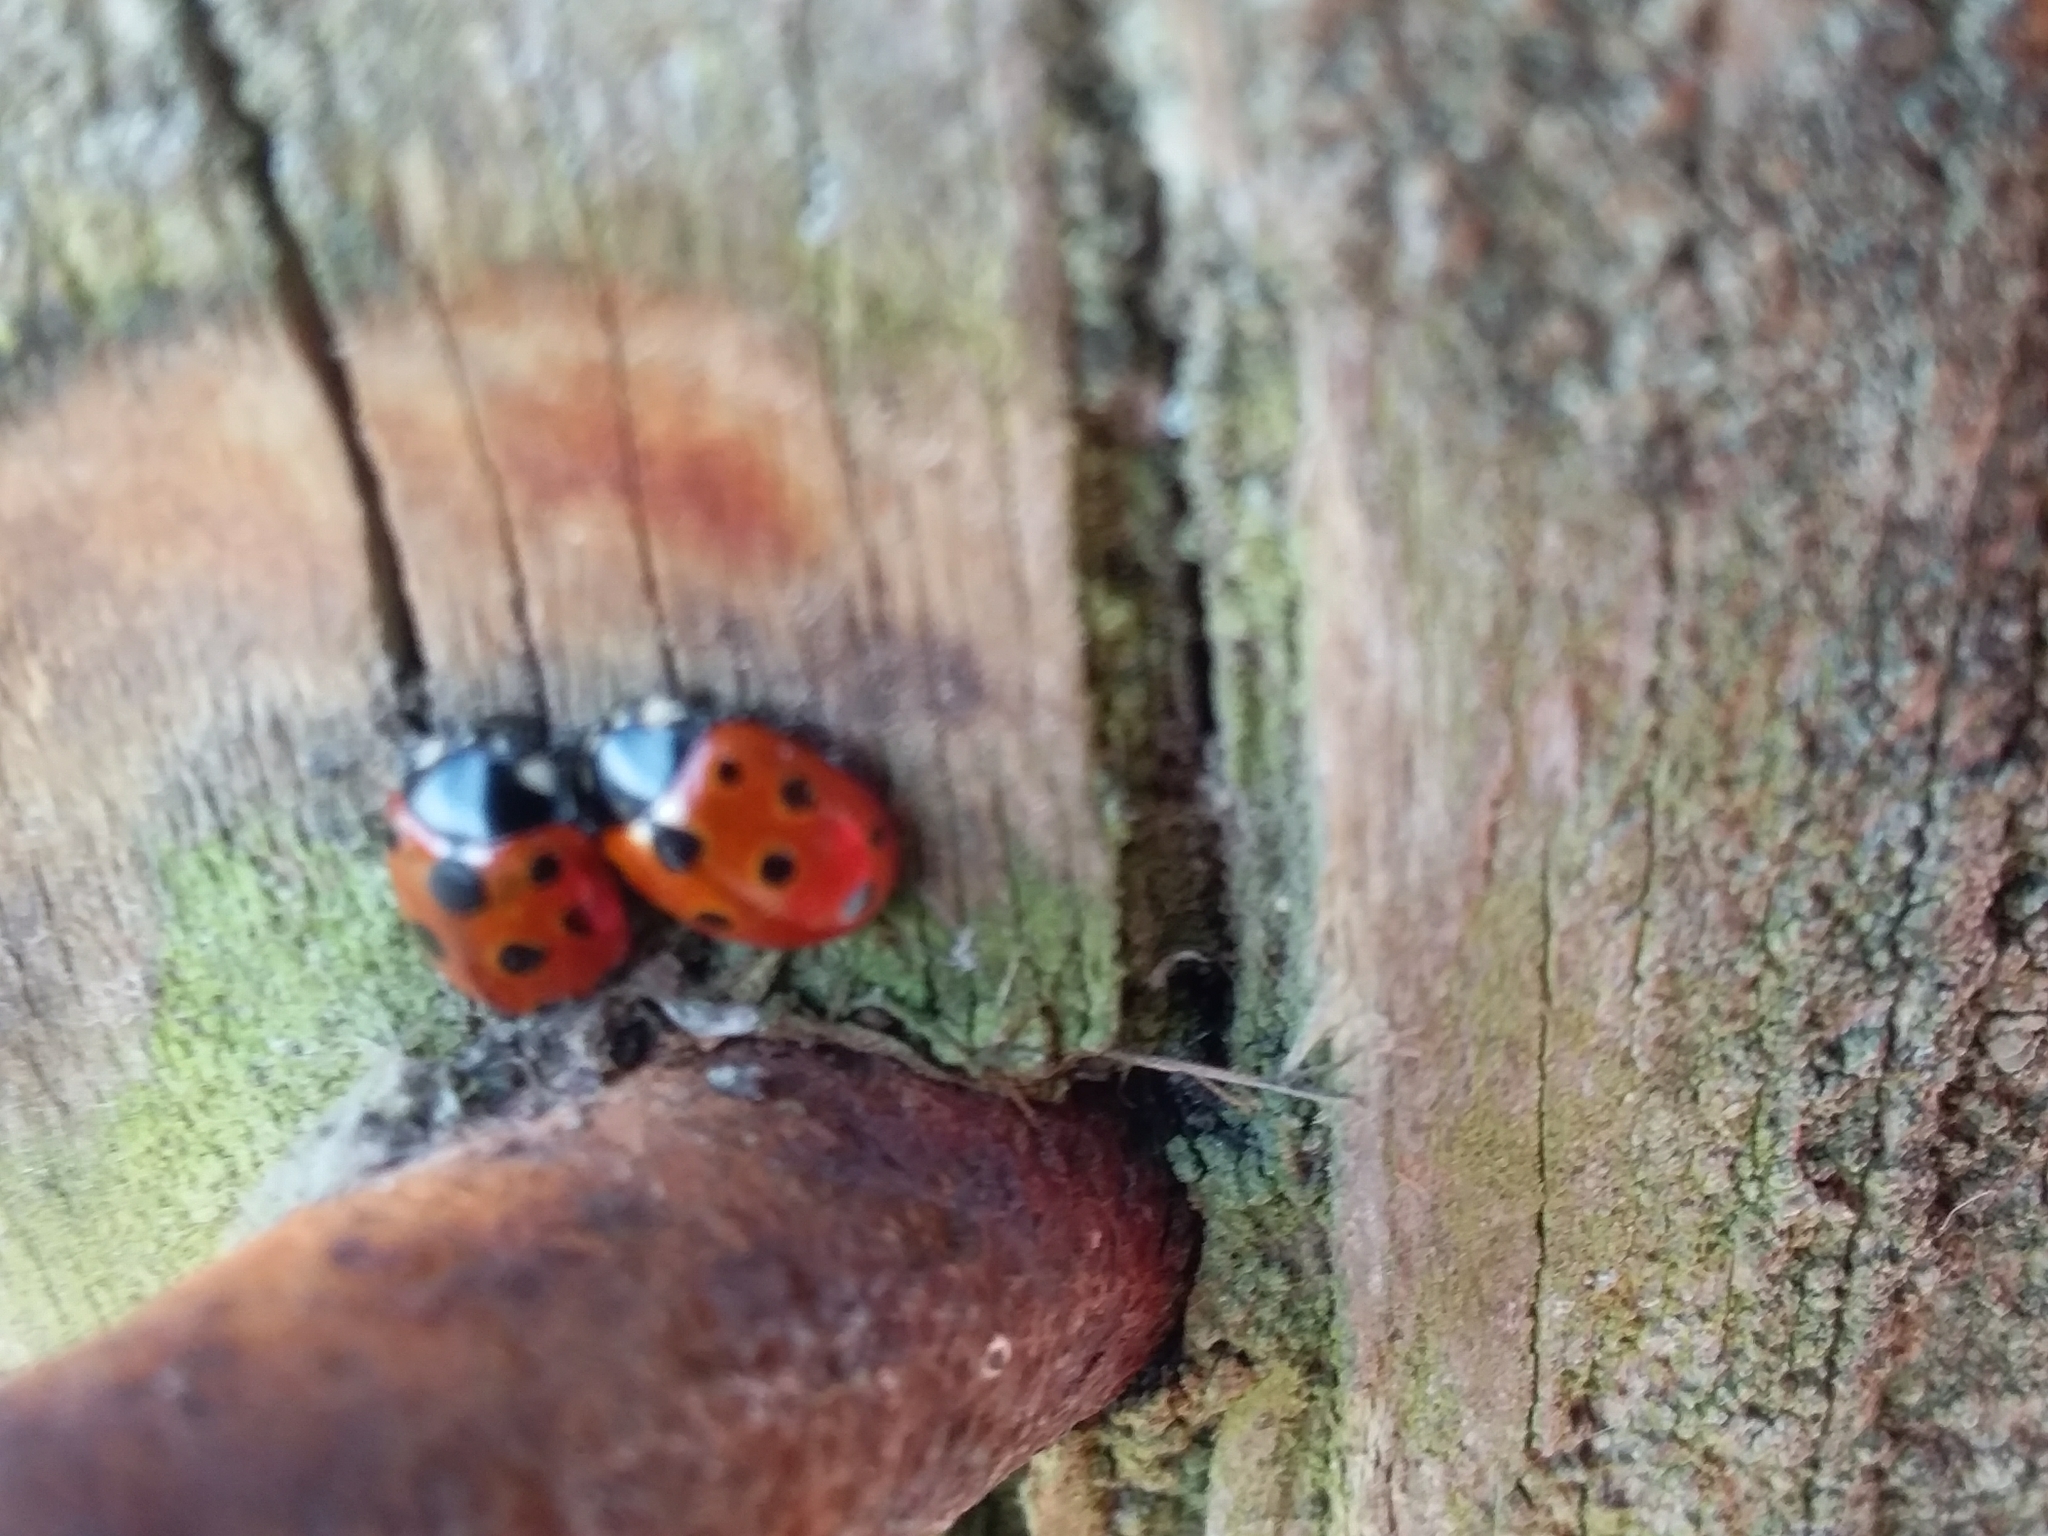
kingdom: Animalia
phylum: Arthropoda
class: Insecta
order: Coleoptera
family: Coccinellidae
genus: Coccinella
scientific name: Coccinella undecimpunctata
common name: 11-spot ladybird
